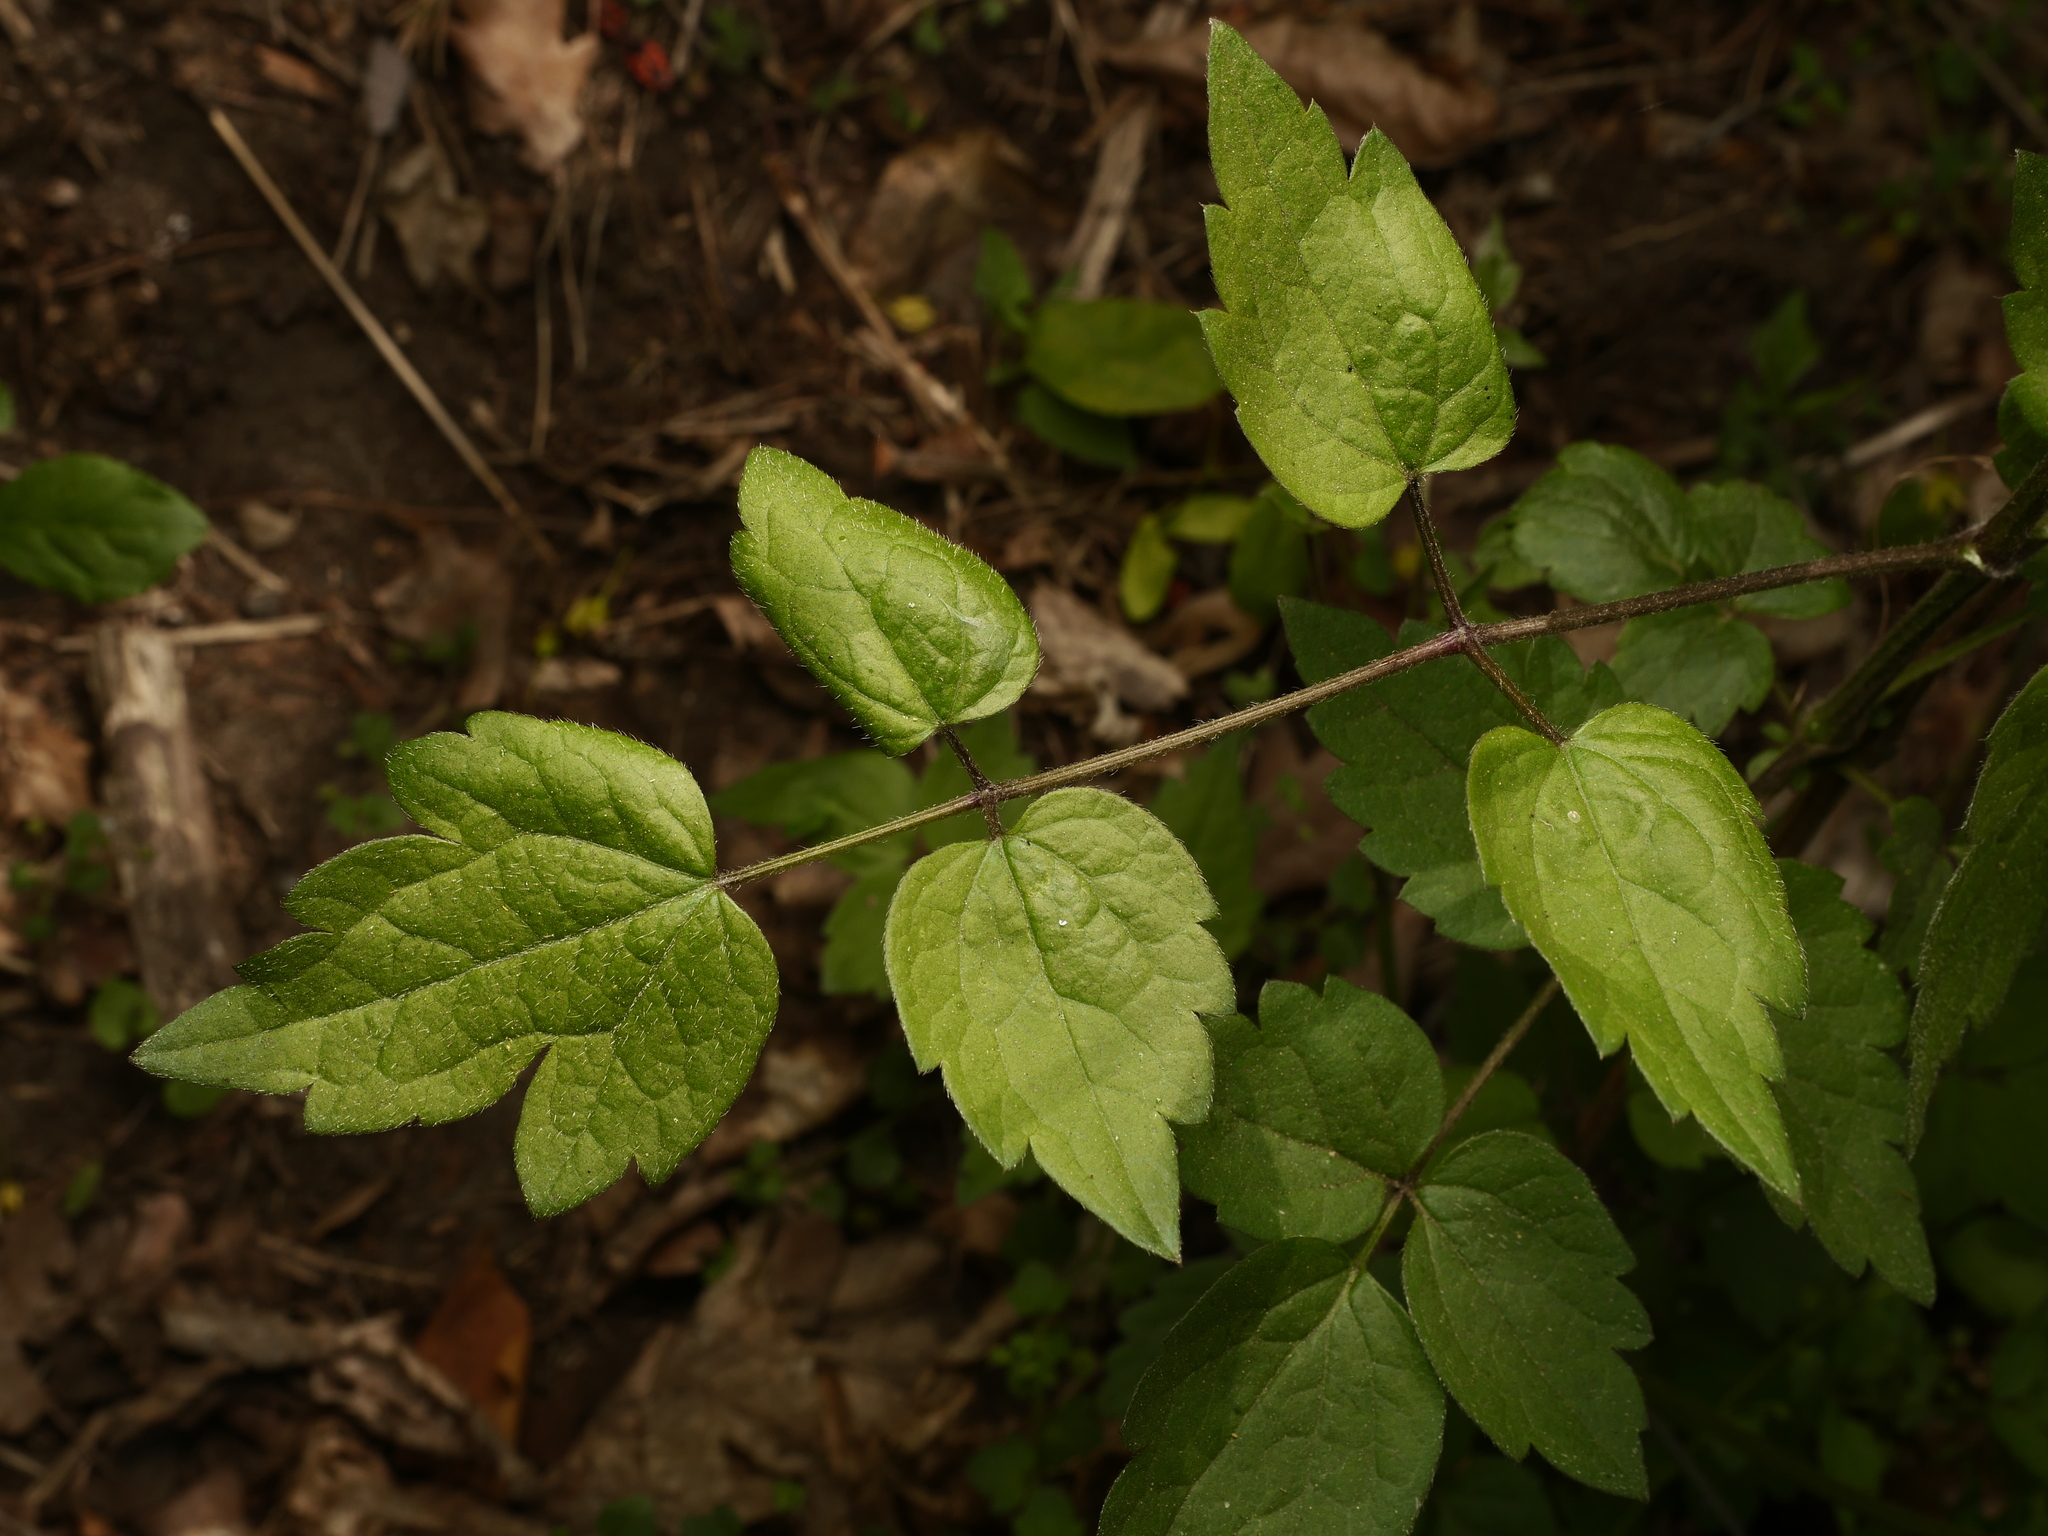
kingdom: Plantae
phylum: Tracheophyta
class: Magnoliopsida
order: Ranunculales
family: Ranunculaceae
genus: Clematis
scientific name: Clematis vitalba
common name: Evergreen clematis
